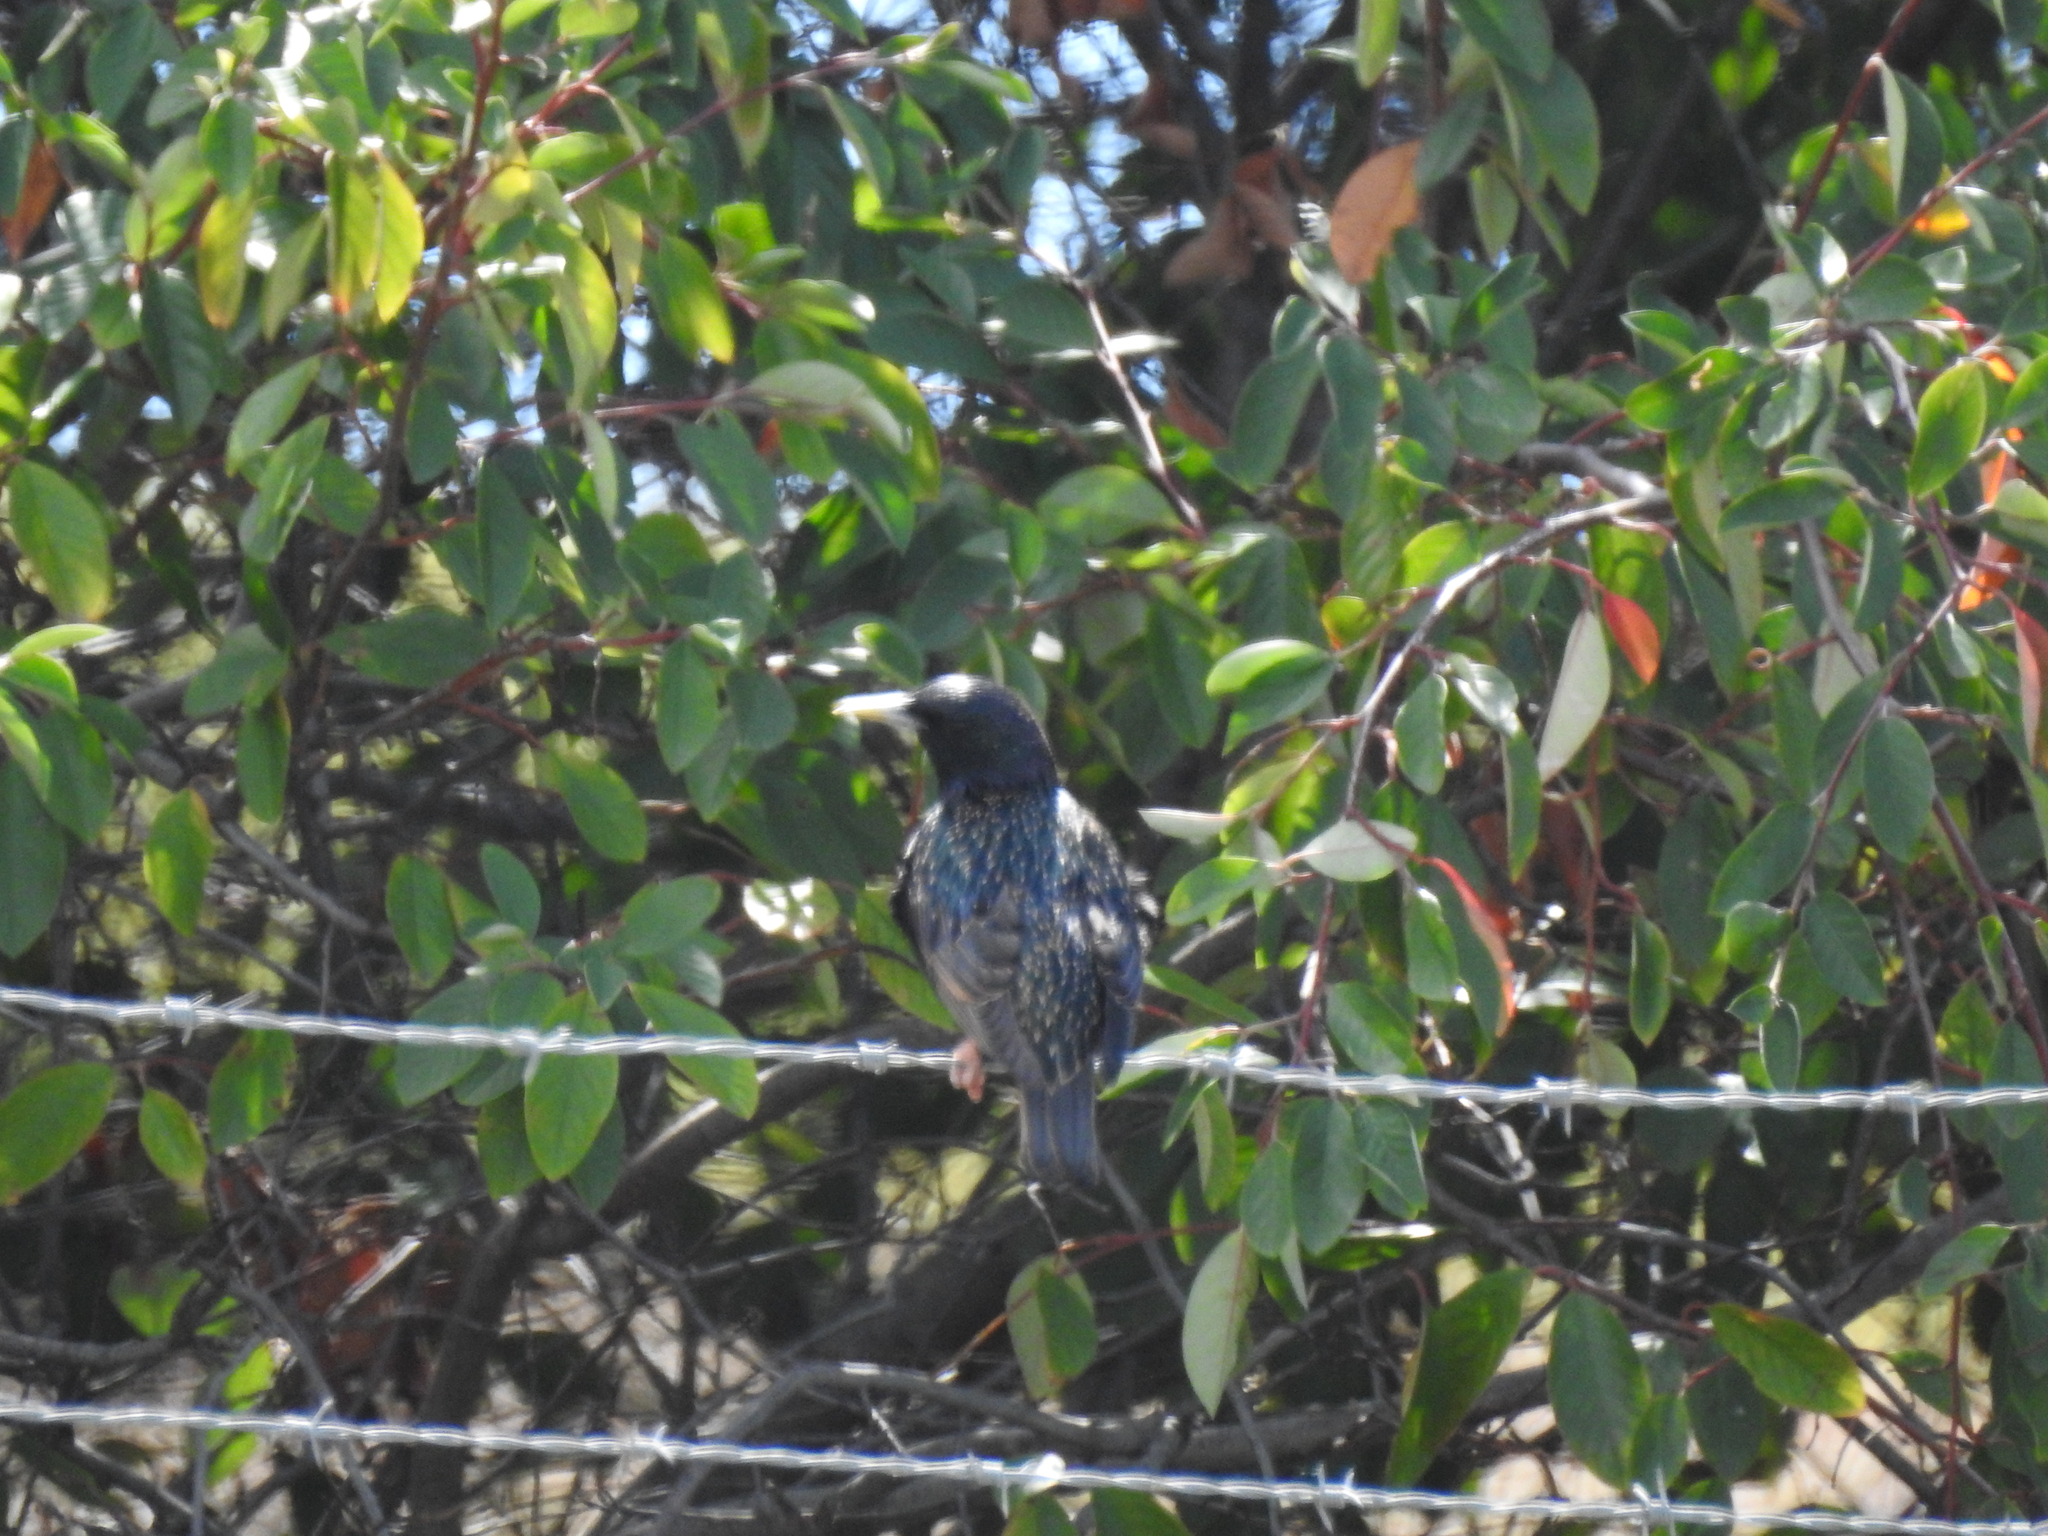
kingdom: Animalia
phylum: Chordata
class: Aves
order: Passeriformes
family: Sturnidae
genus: Sturnus
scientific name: Sturnus vulgaris
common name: Common starling
